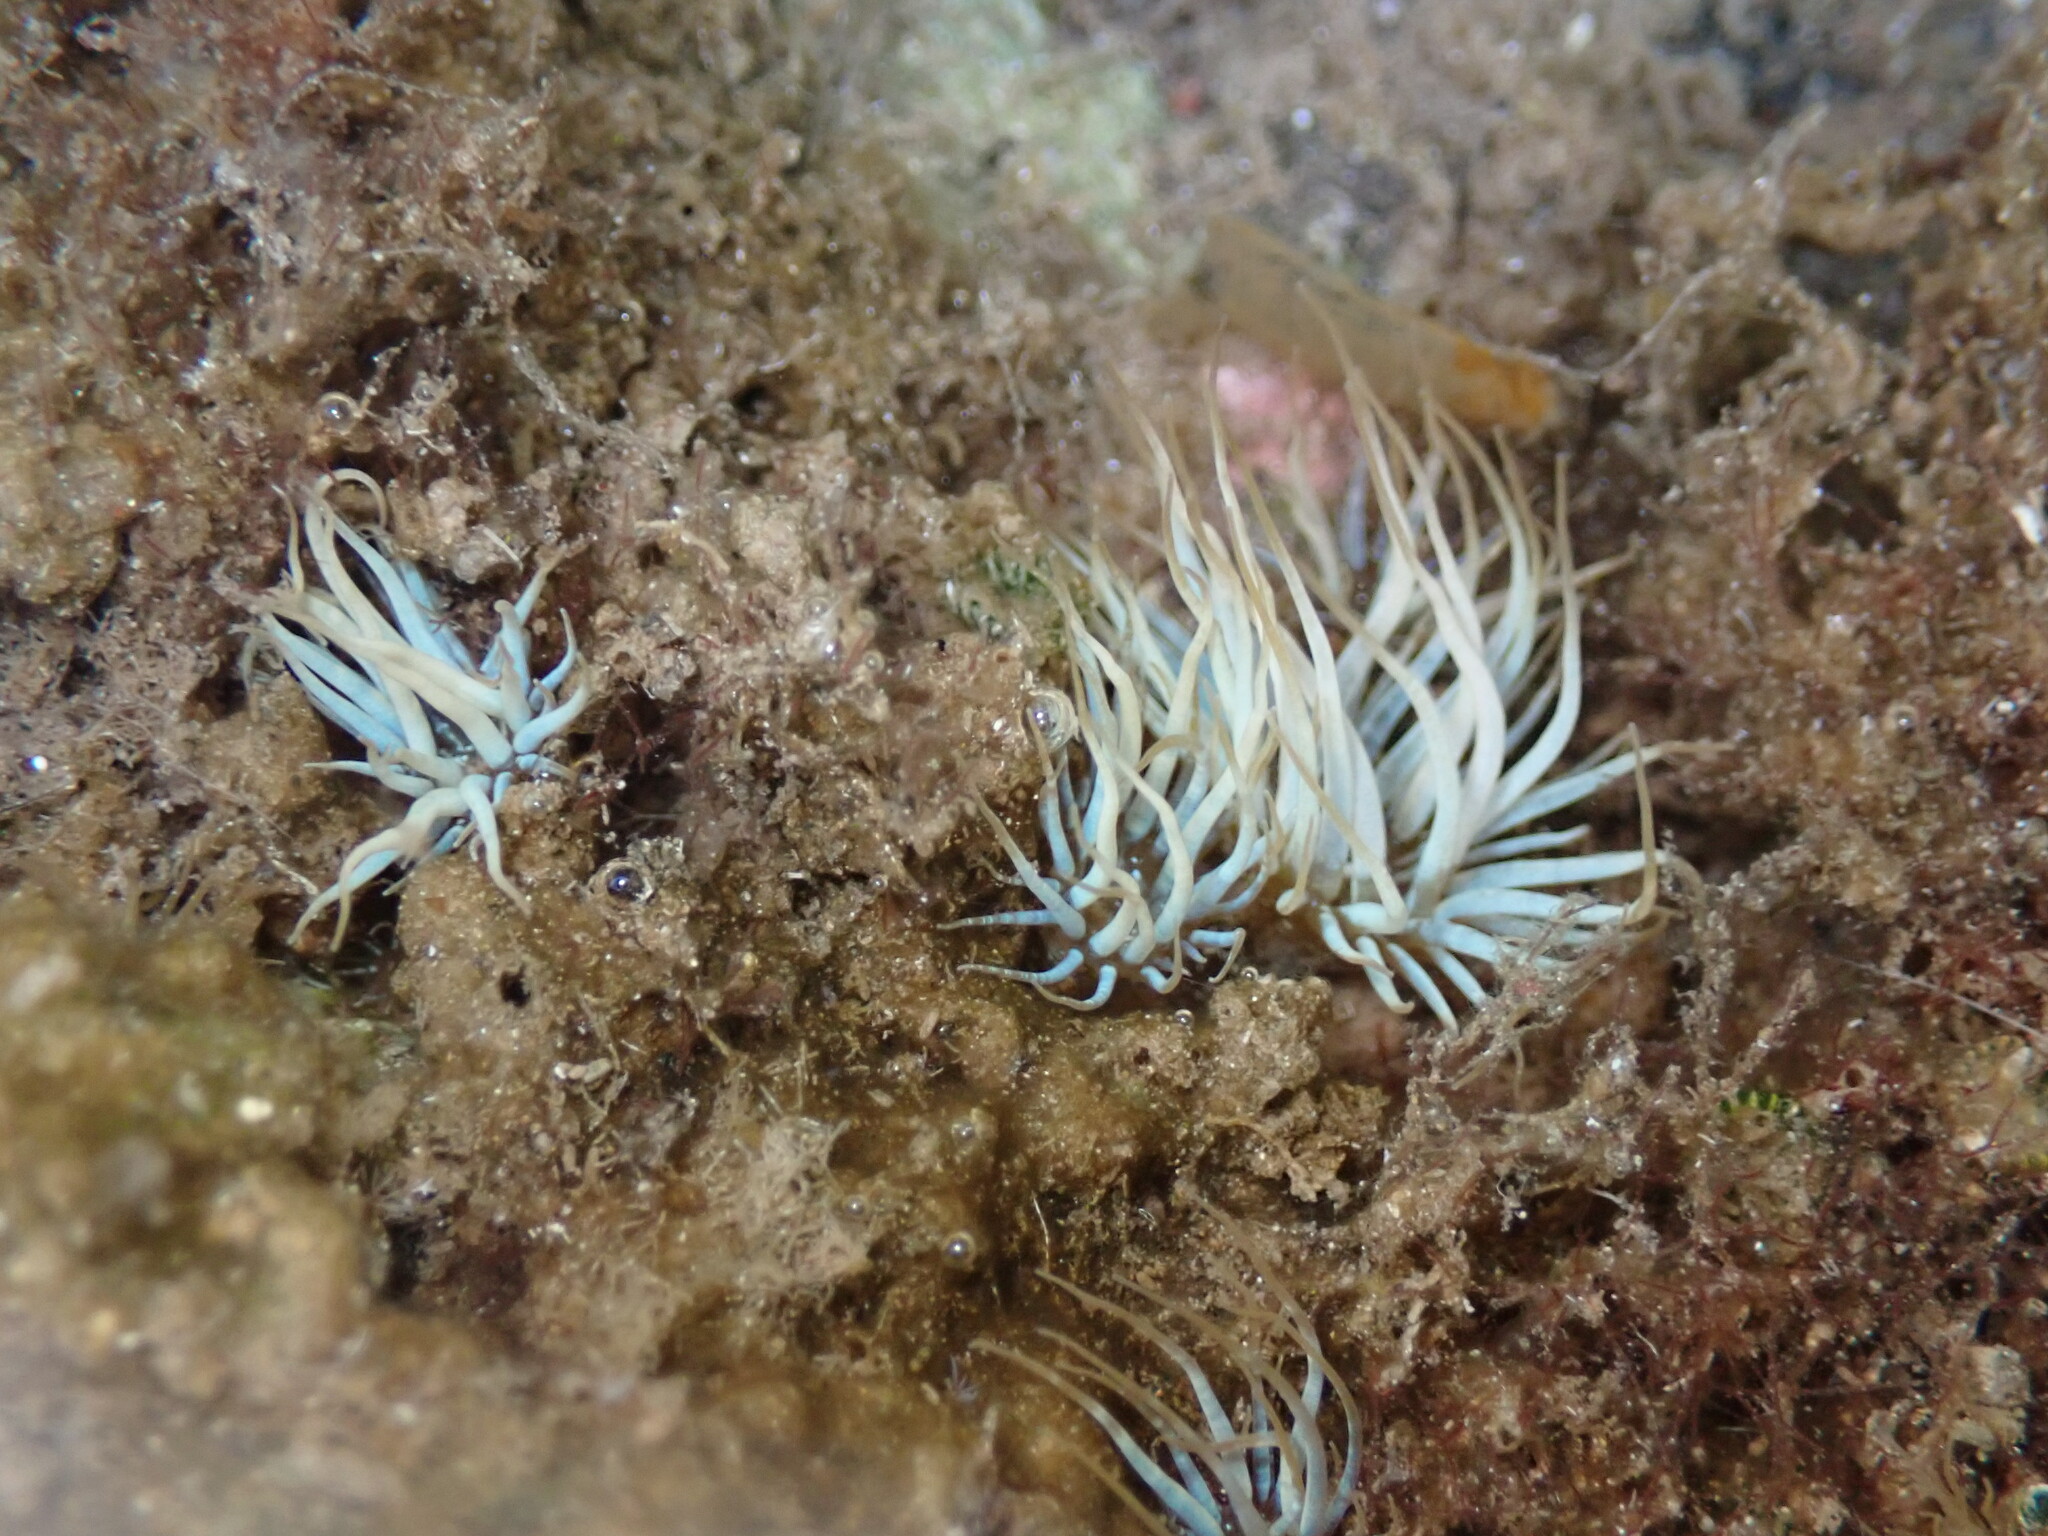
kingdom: Animalia
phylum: Cnidaria
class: Anthozoa
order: Actiniaria
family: Aiptasiidae
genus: Exaiptasia
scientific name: Exaiptasia diaphana
